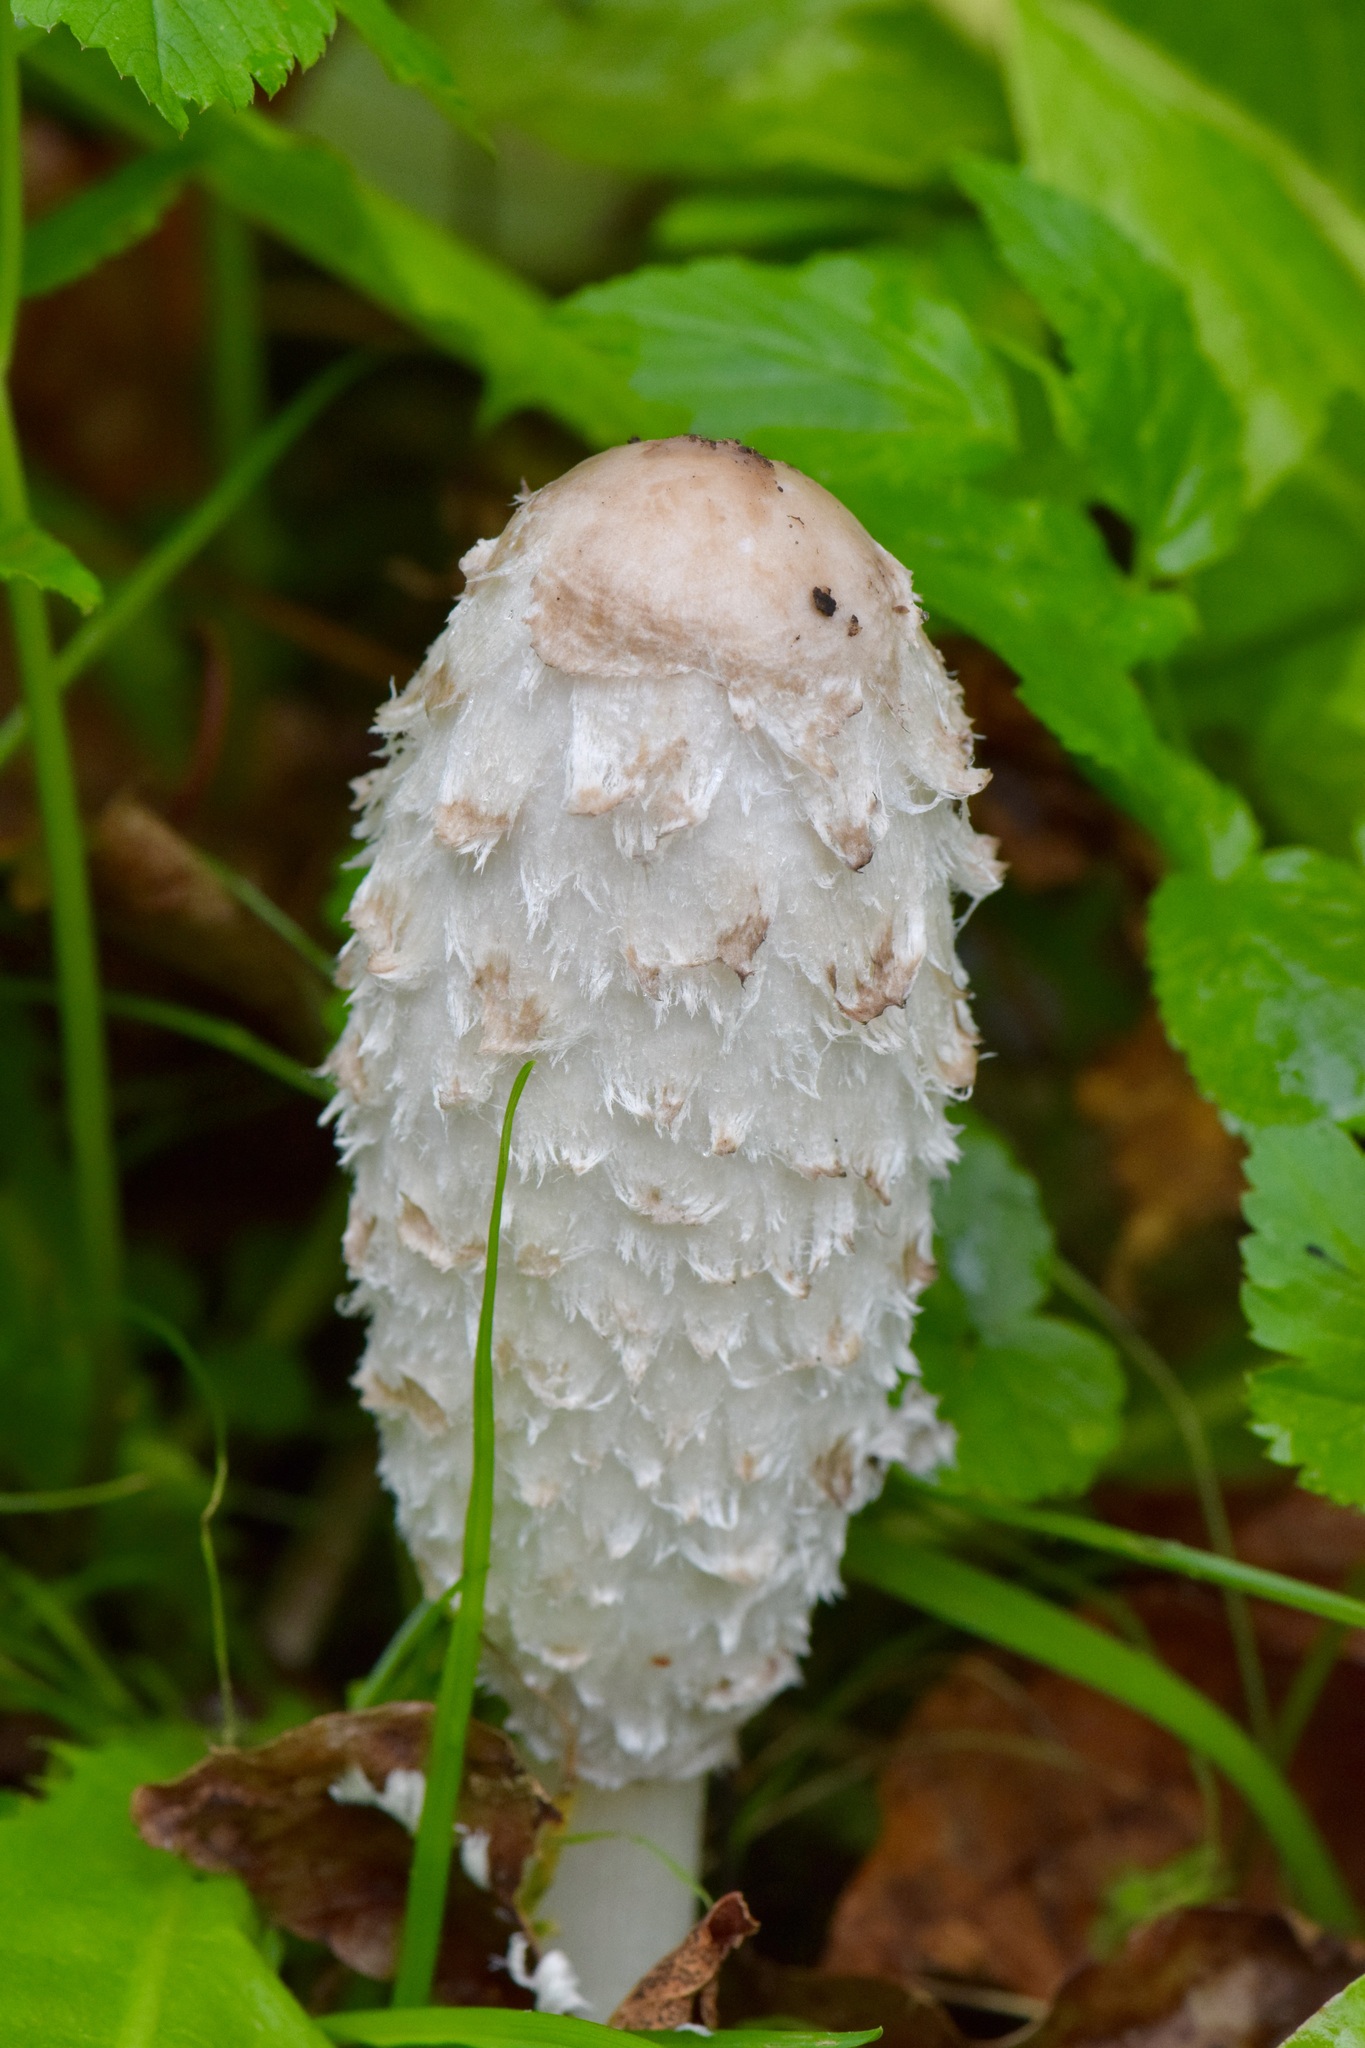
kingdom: Fungi
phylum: Basidiomycota
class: Agaricomycetes
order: Agaricales
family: Agaricaceae
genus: Coprinus
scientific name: Coprinus comatus
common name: Lawyer's wig
